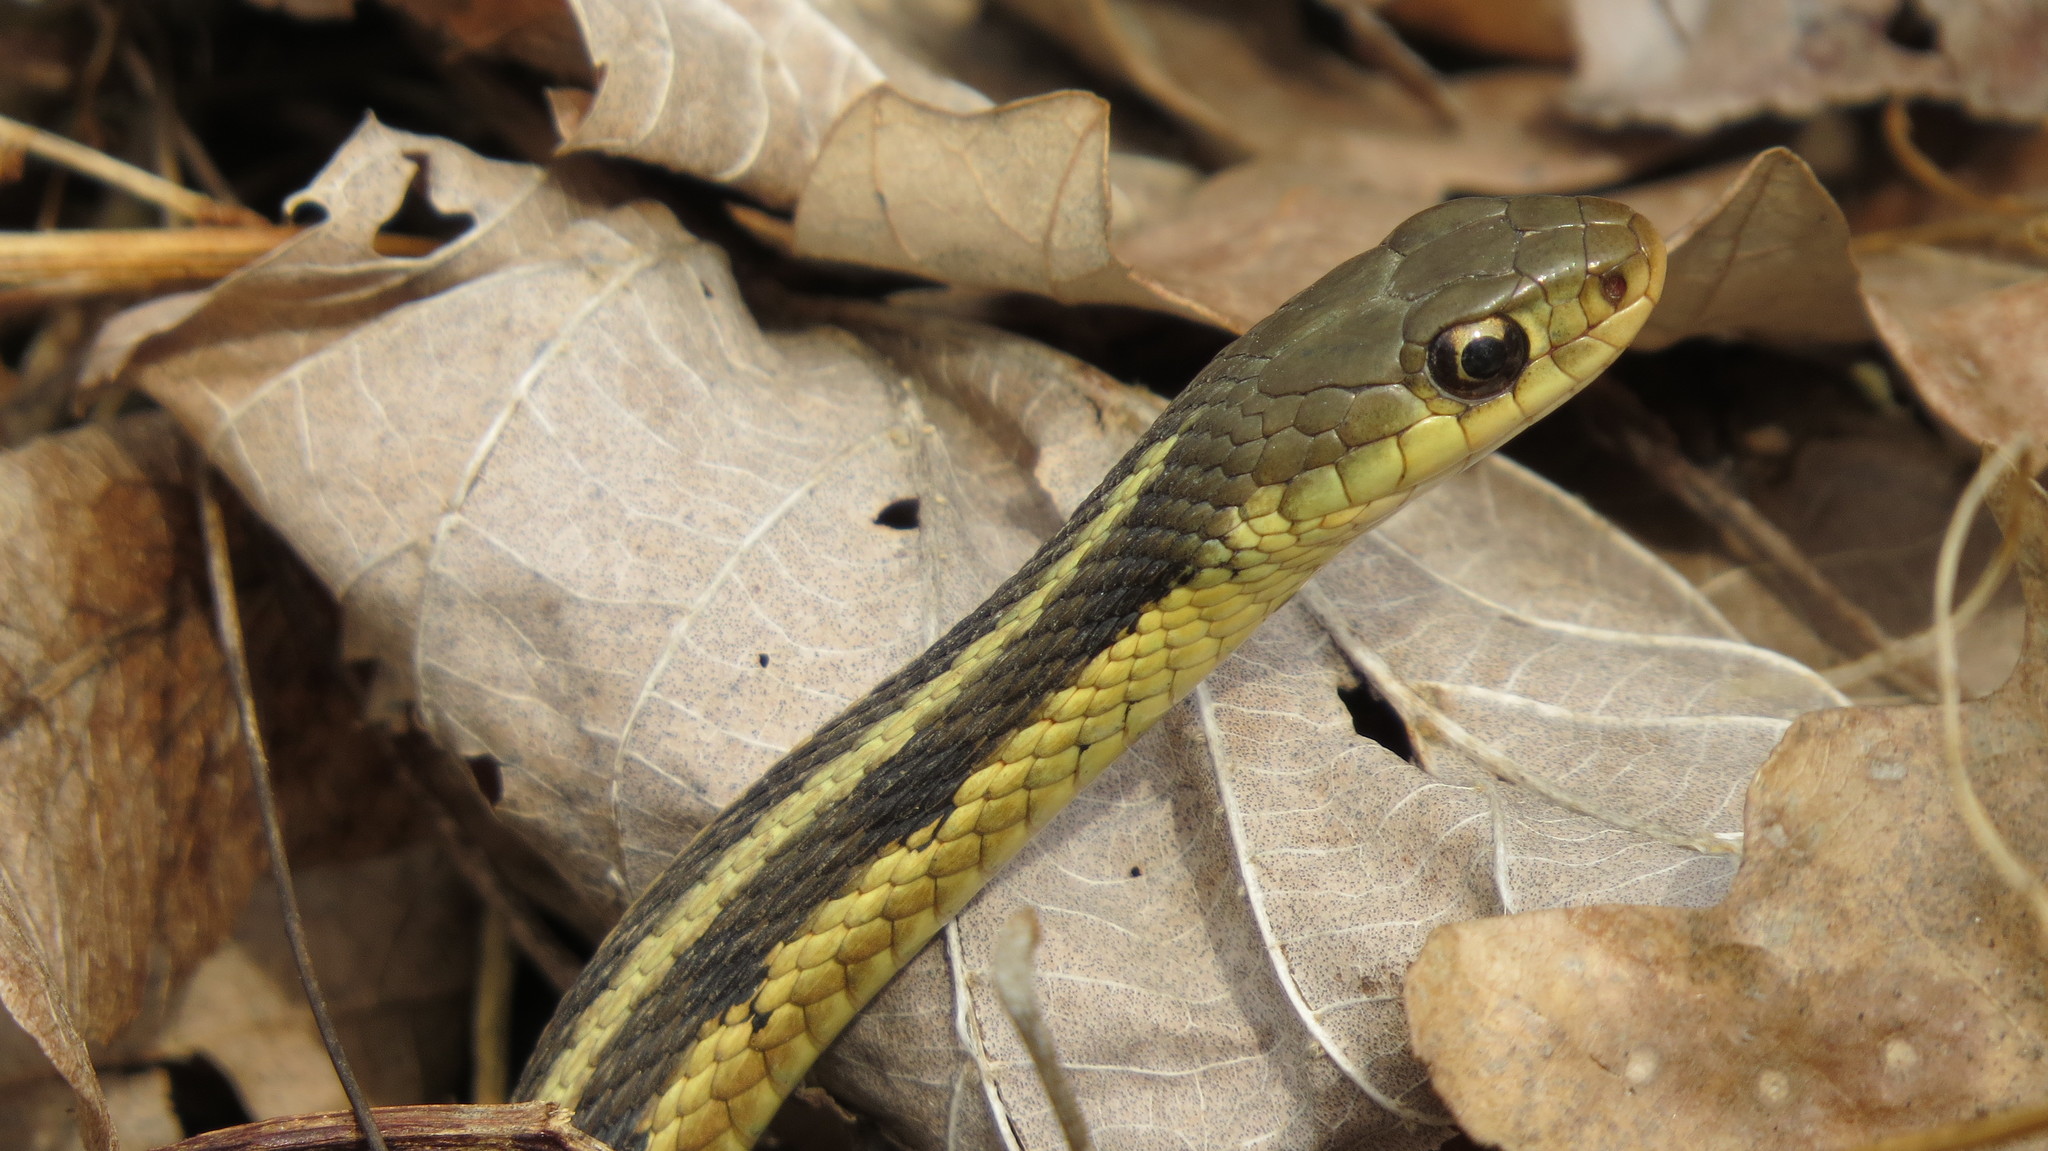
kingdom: Animalia
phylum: Chordata
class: Squamata
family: Colubridae
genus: Thamnophis
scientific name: Thamnophis sirtalis
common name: Common garter snake
